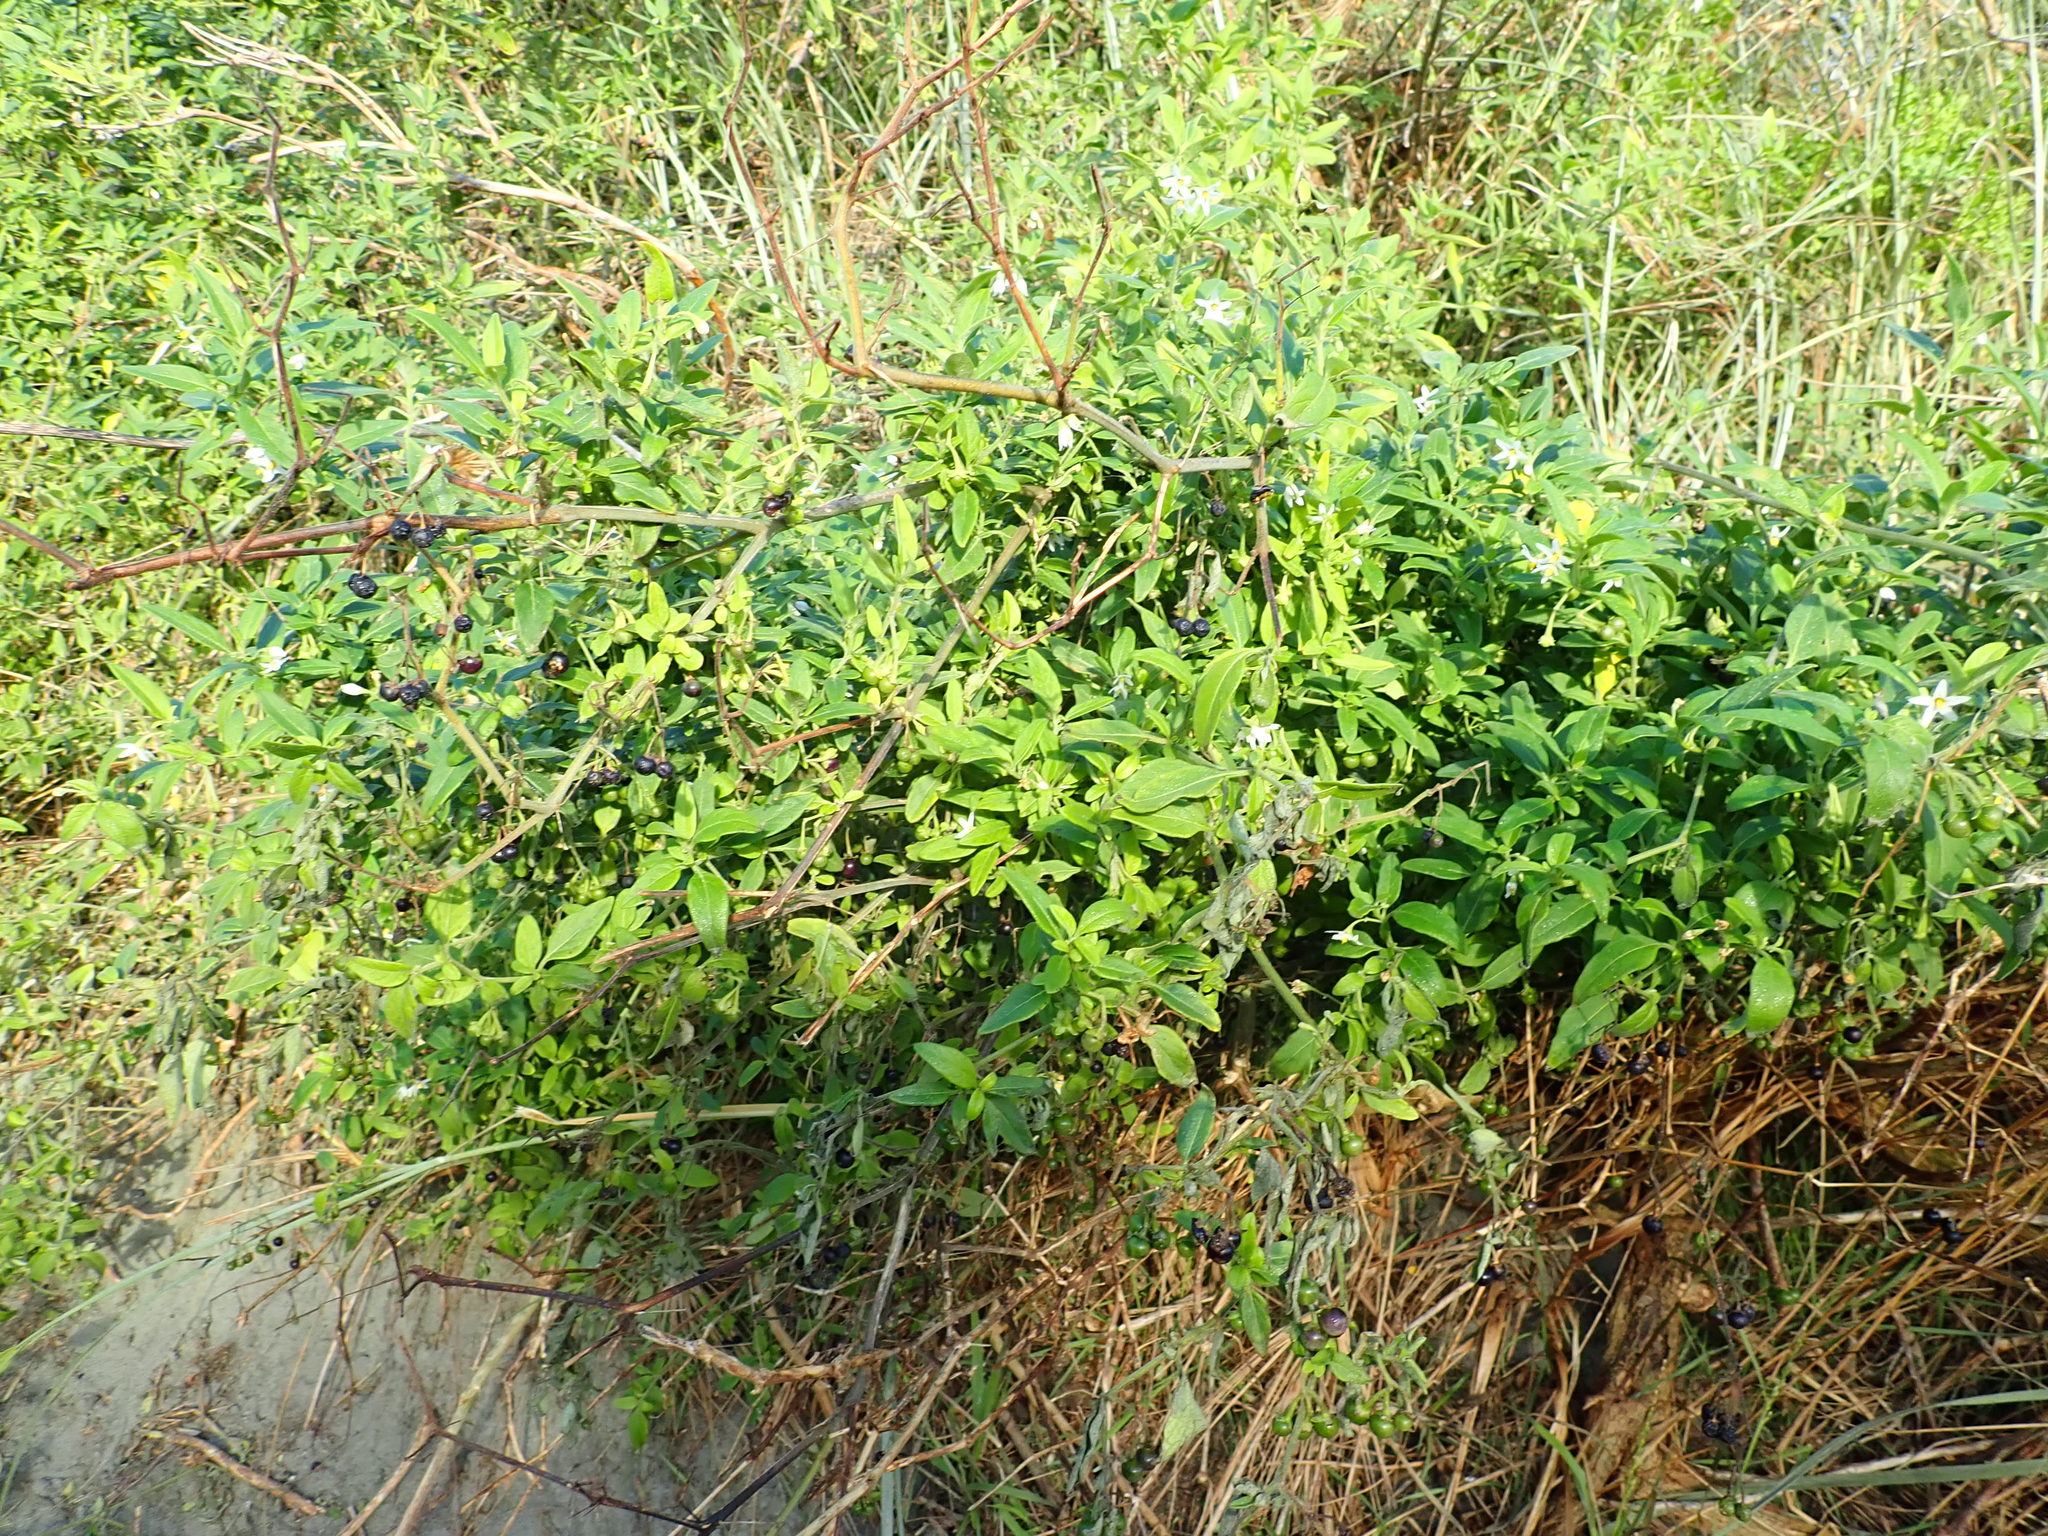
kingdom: Plantae
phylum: Tracheophyta
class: Magnoliopsida
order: Solanales
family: Solanaceae
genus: Solanum
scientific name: Solanum chenopodioides
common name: Tall nightshade
